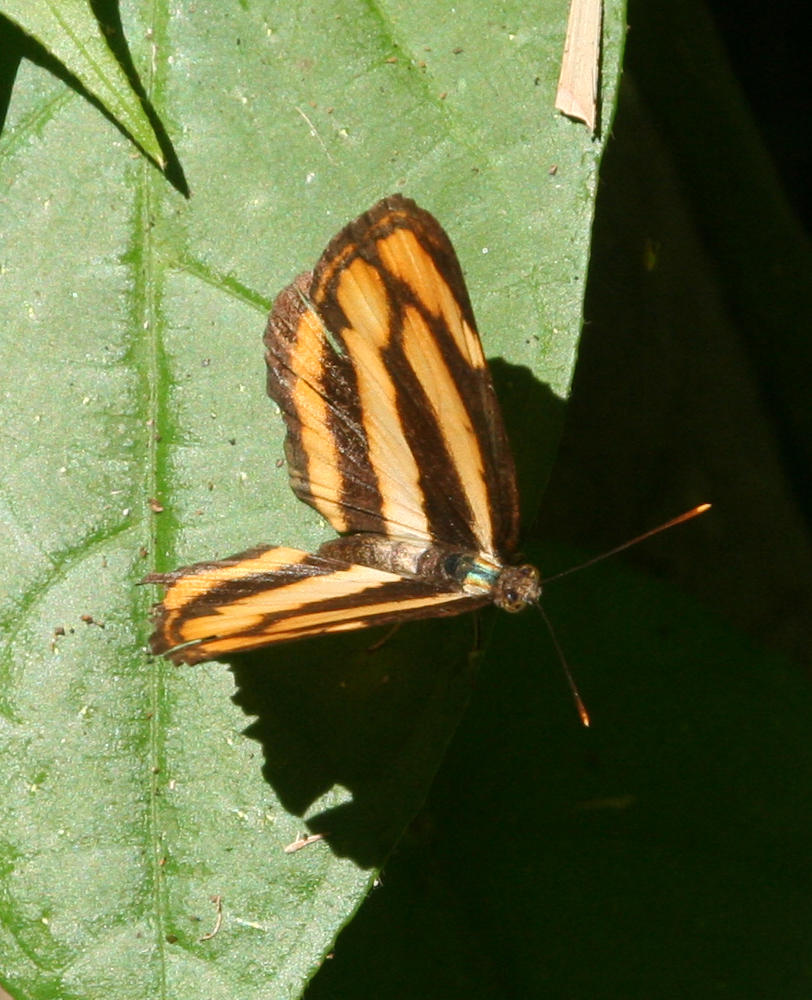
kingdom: Animalia
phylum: Arthropoda
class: Insecta
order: Lepidoptera
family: Nymphalidae
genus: Pantoporia
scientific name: Pantoporia sandaka
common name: Extra lascar
